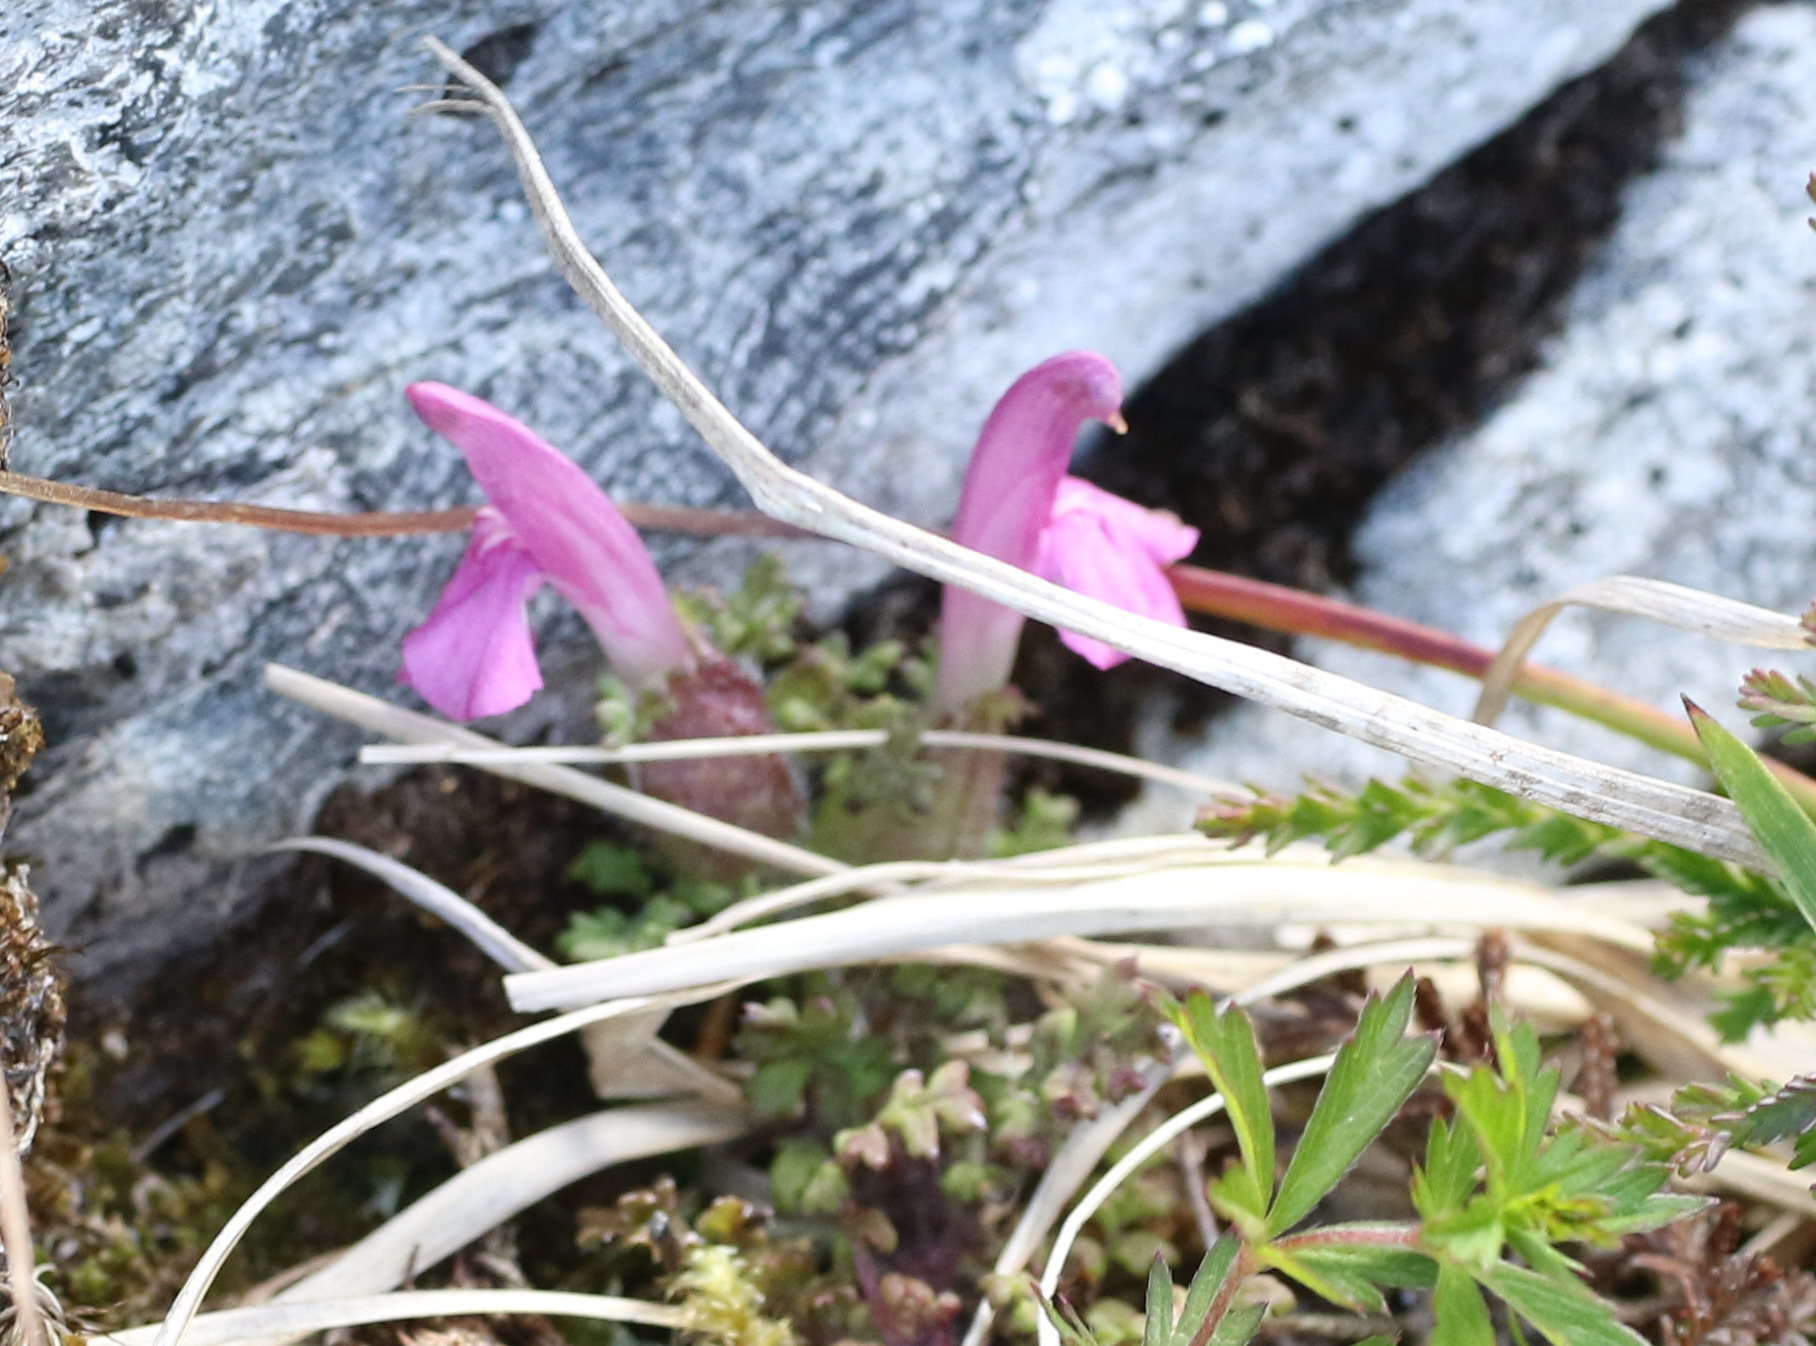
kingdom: Plantae
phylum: Tracheophyta
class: Magnoliopsida
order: Lamiales
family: Orobanchaceae
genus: Pedicularis
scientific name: Pedicularis sylvatica
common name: Lousewort
